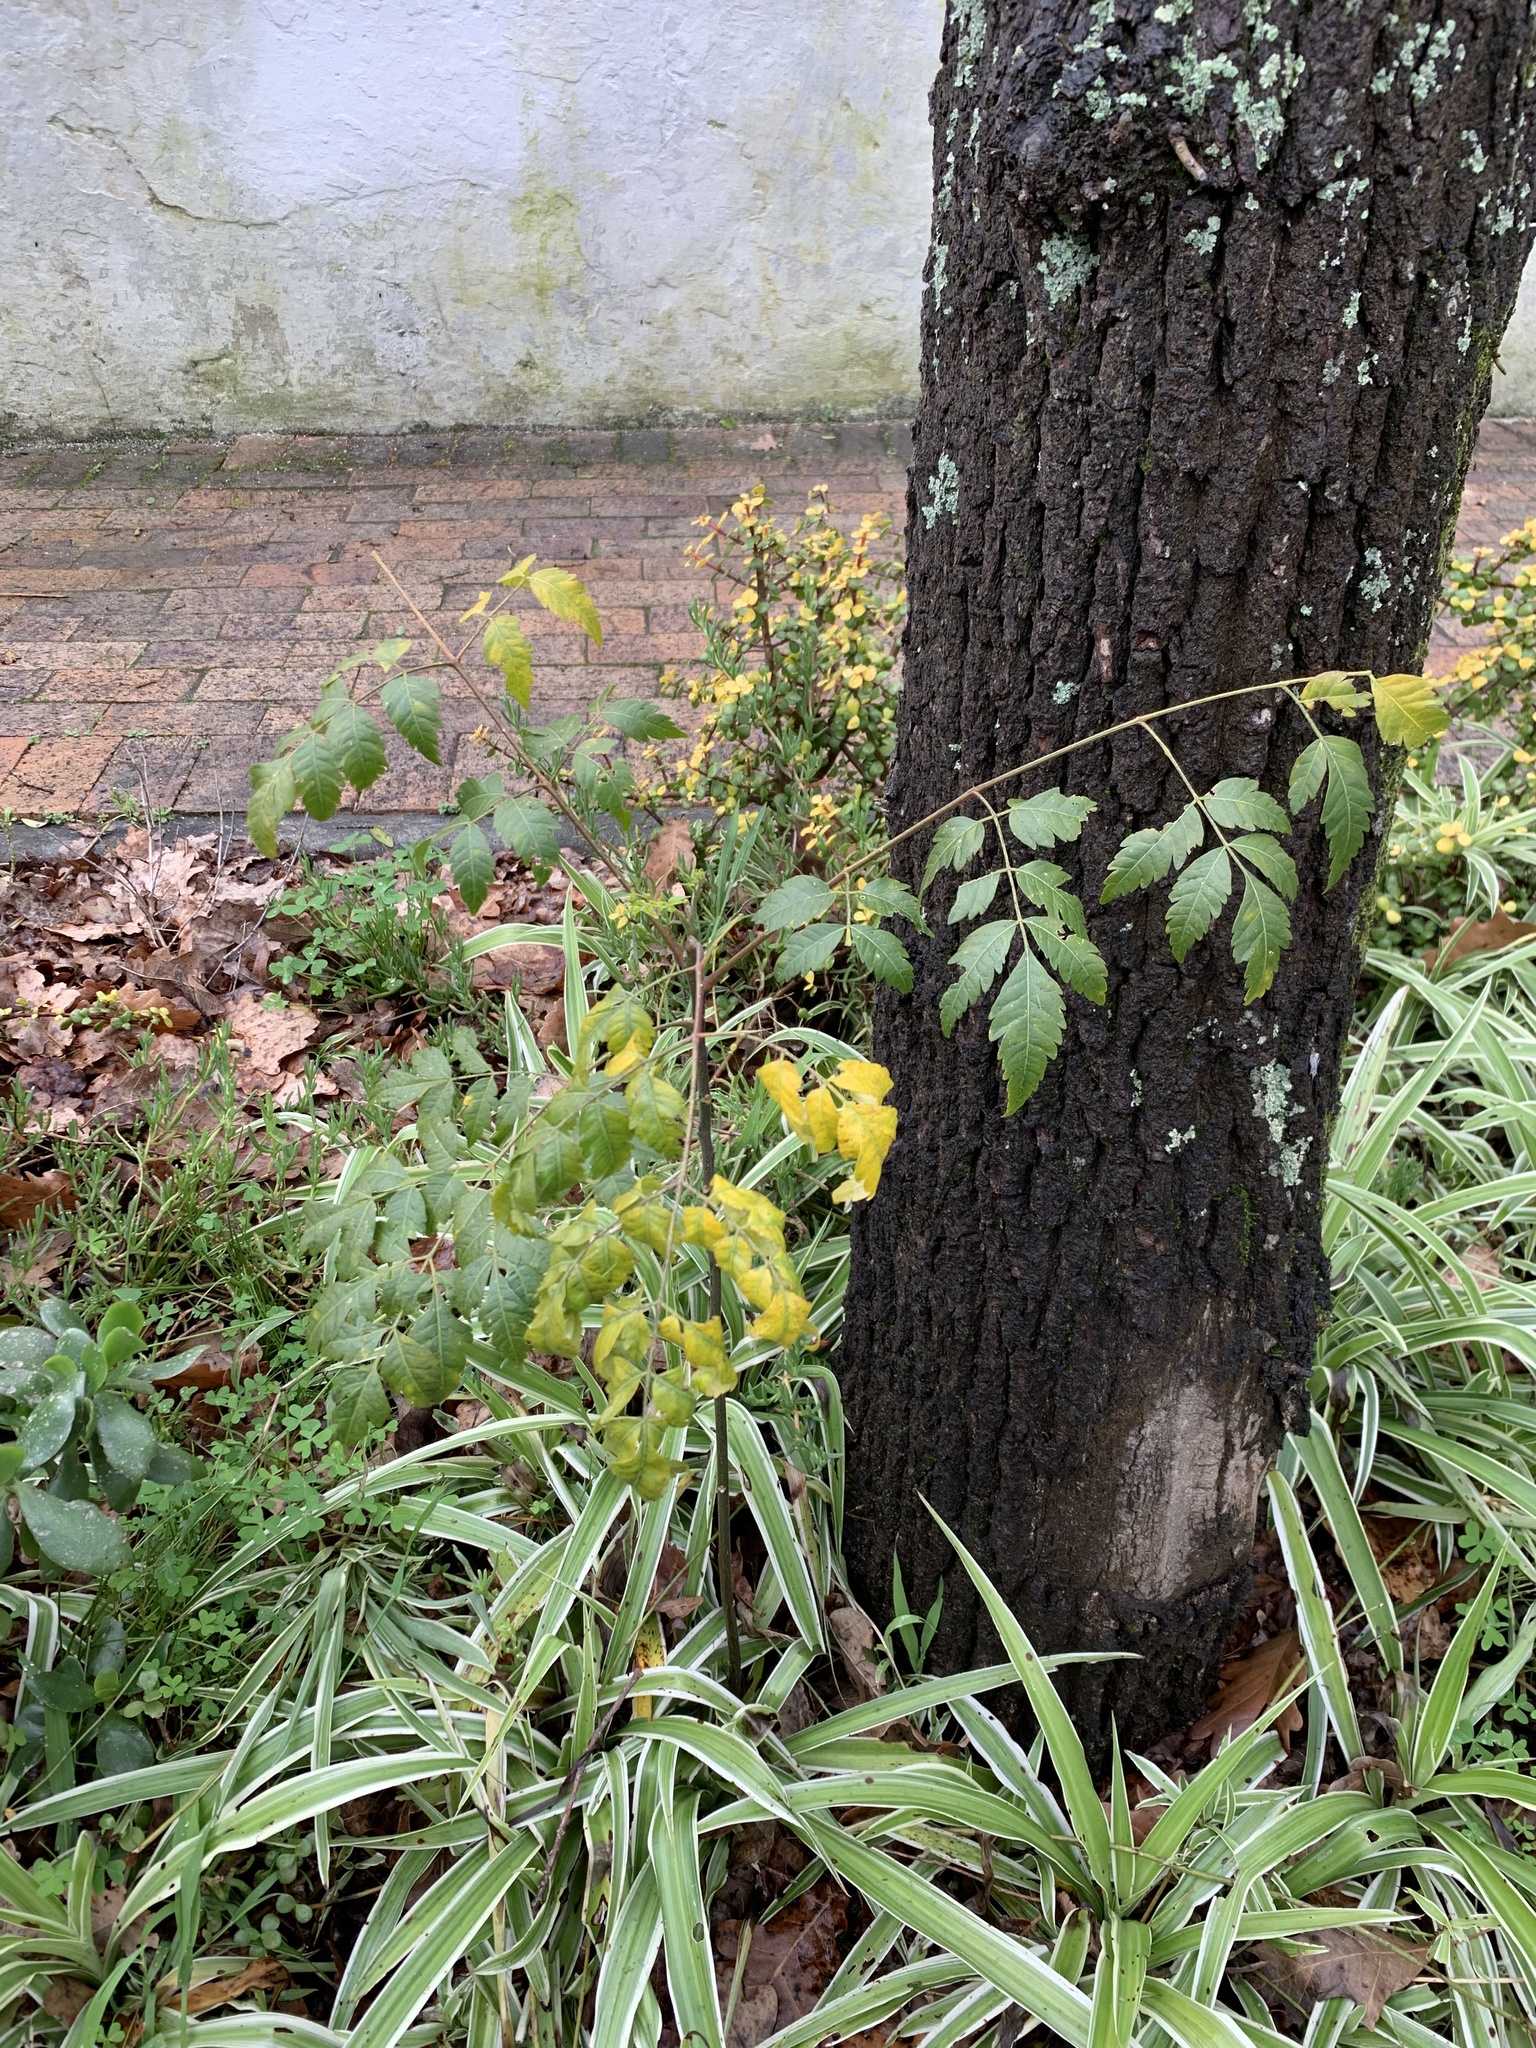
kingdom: Plantae
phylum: Tracheophyta
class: Magnoliopsida
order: Sapindales
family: Meliaceae
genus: Melia
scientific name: Melia azedarach
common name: Chinaberrytree
